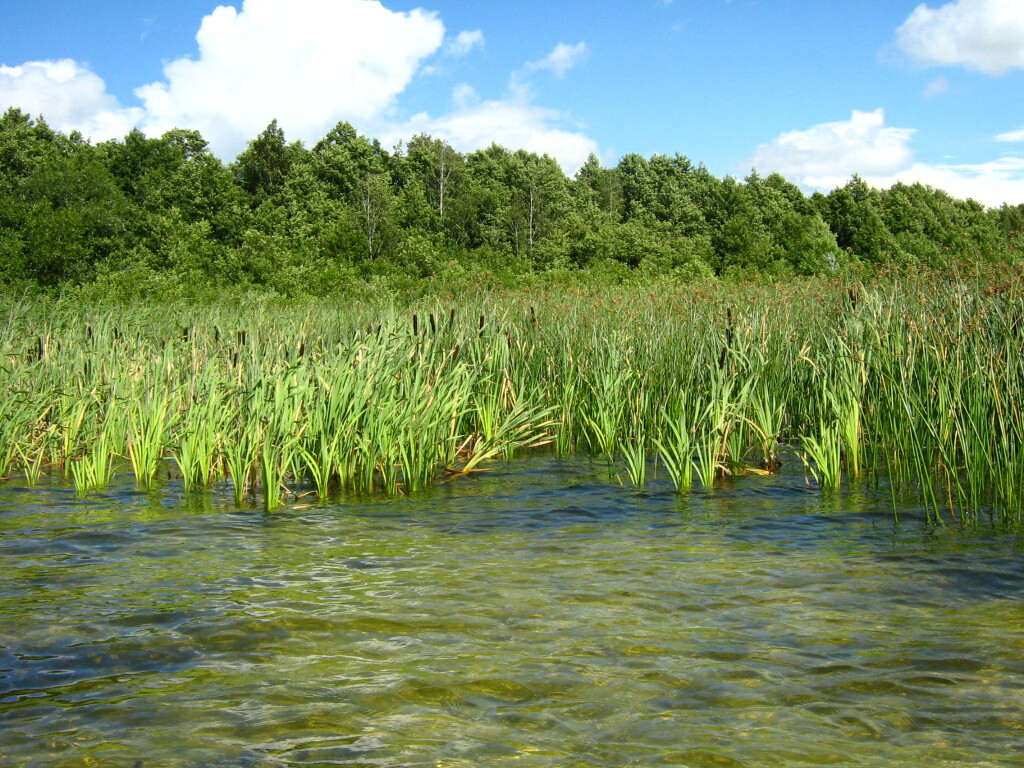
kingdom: Plantae
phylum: Tracheophyta
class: Liliopsida
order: Poales
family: Typhaceae
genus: Typha
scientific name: Typha latifolia
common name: Broadleaf cattail
